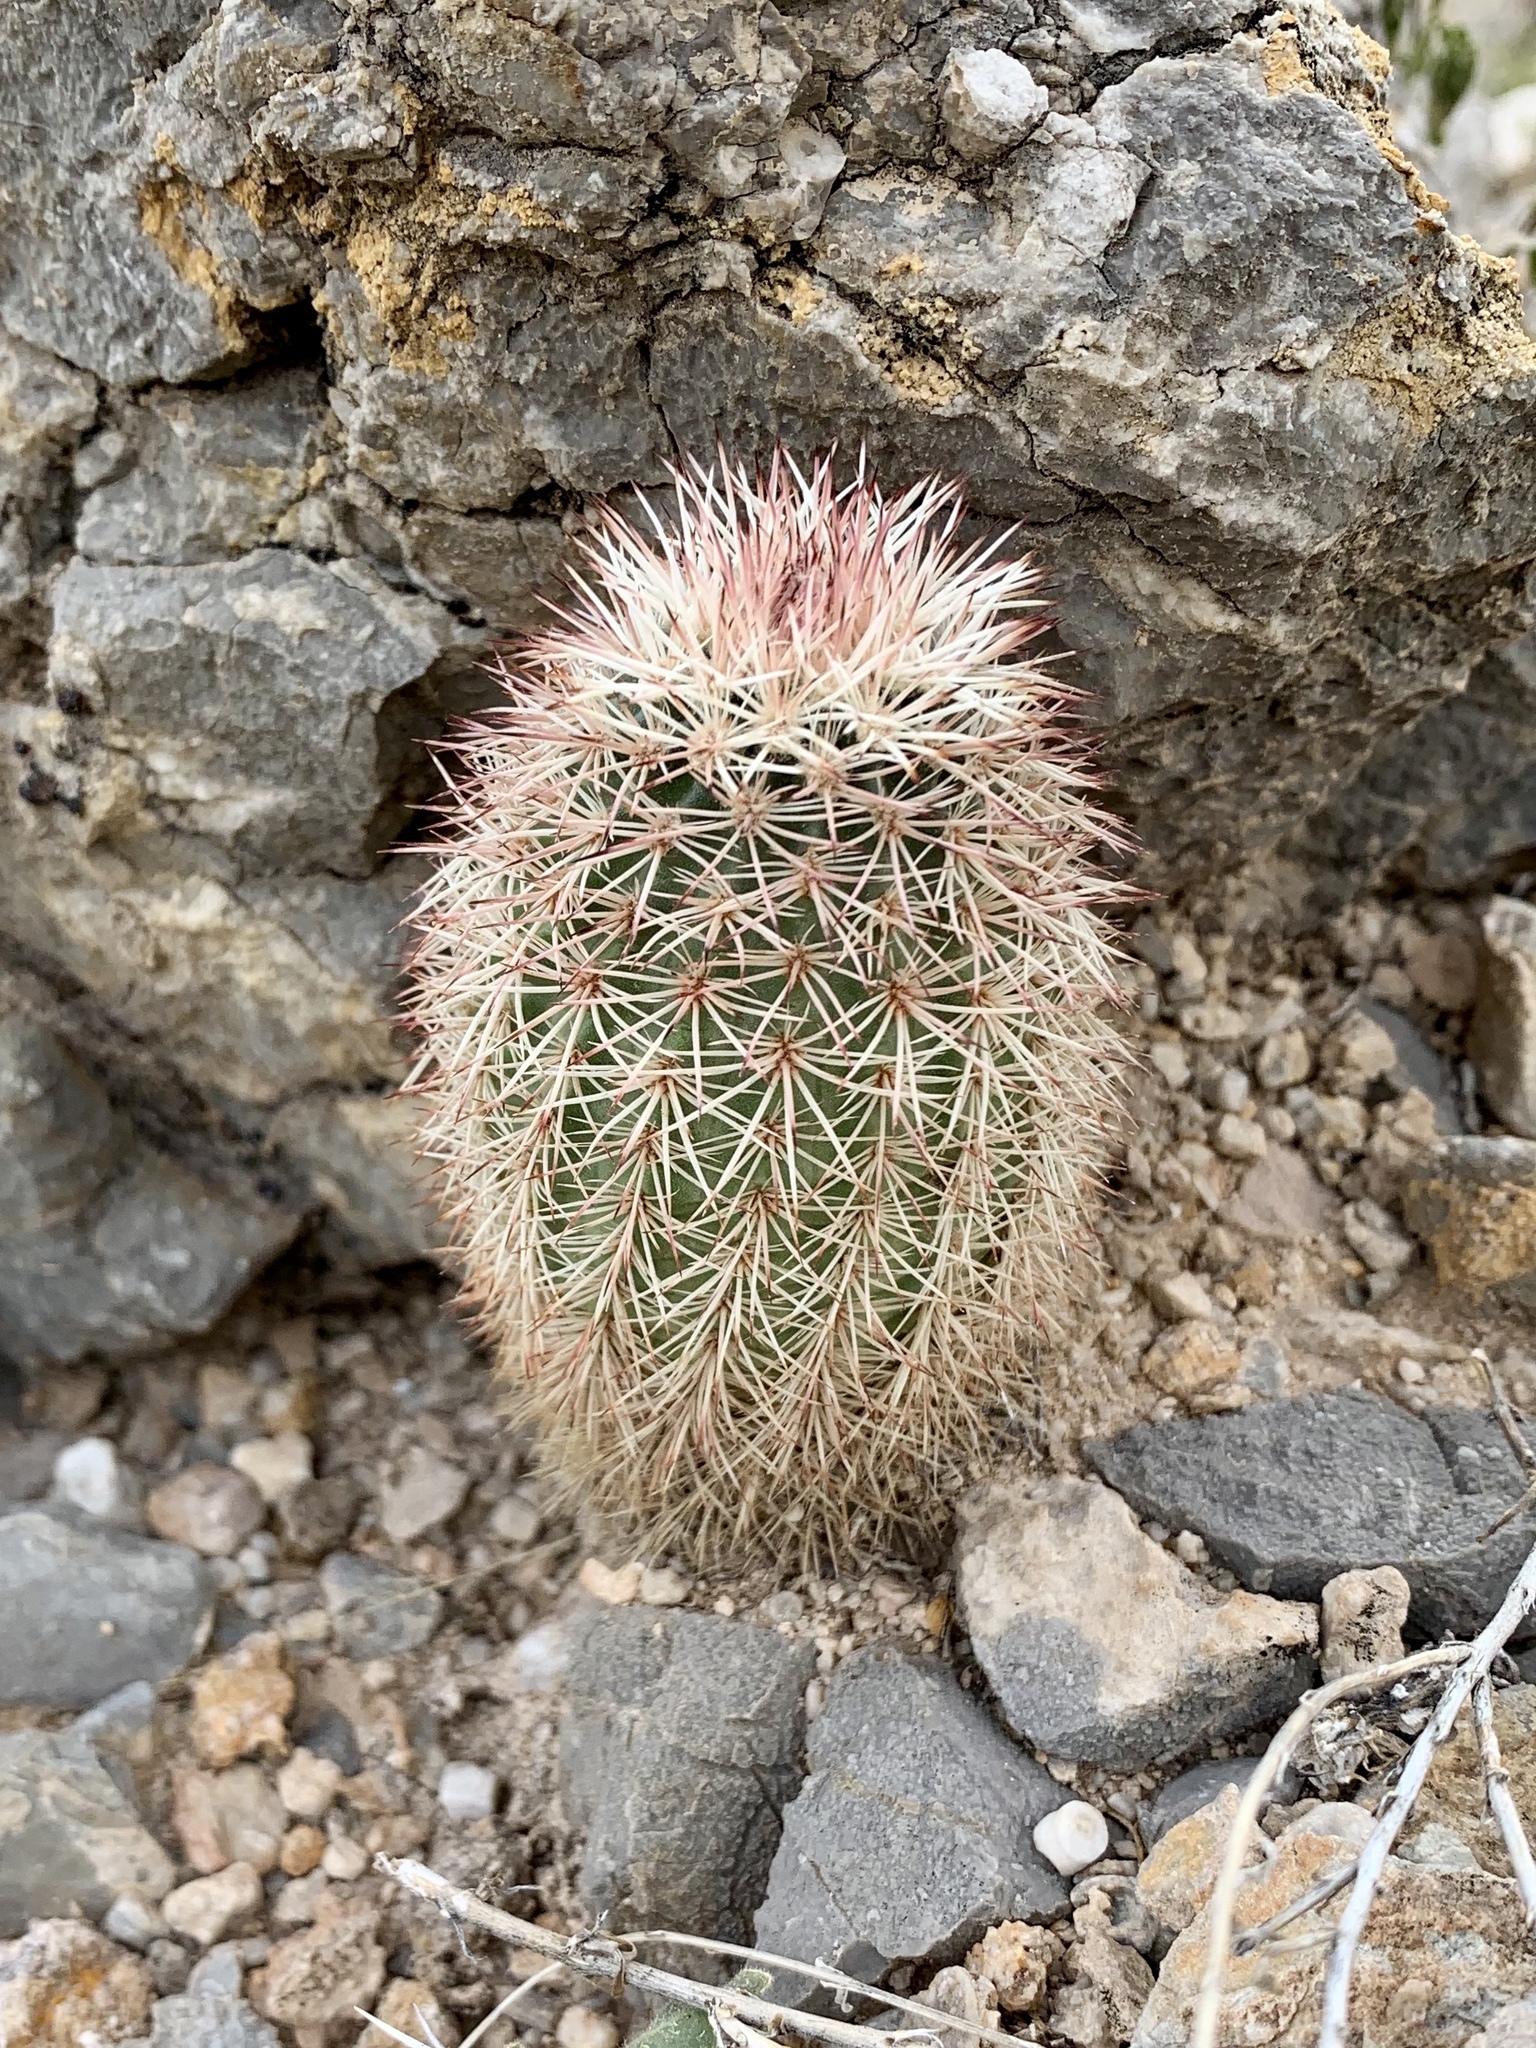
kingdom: Plantae
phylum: Tracheophyta
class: Magnoliopsida
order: Caryophyllales
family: Cactaceae
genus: Echinocereus
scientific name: Echinocereus dasyacanthus
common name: Spiny hedgehog cactus
